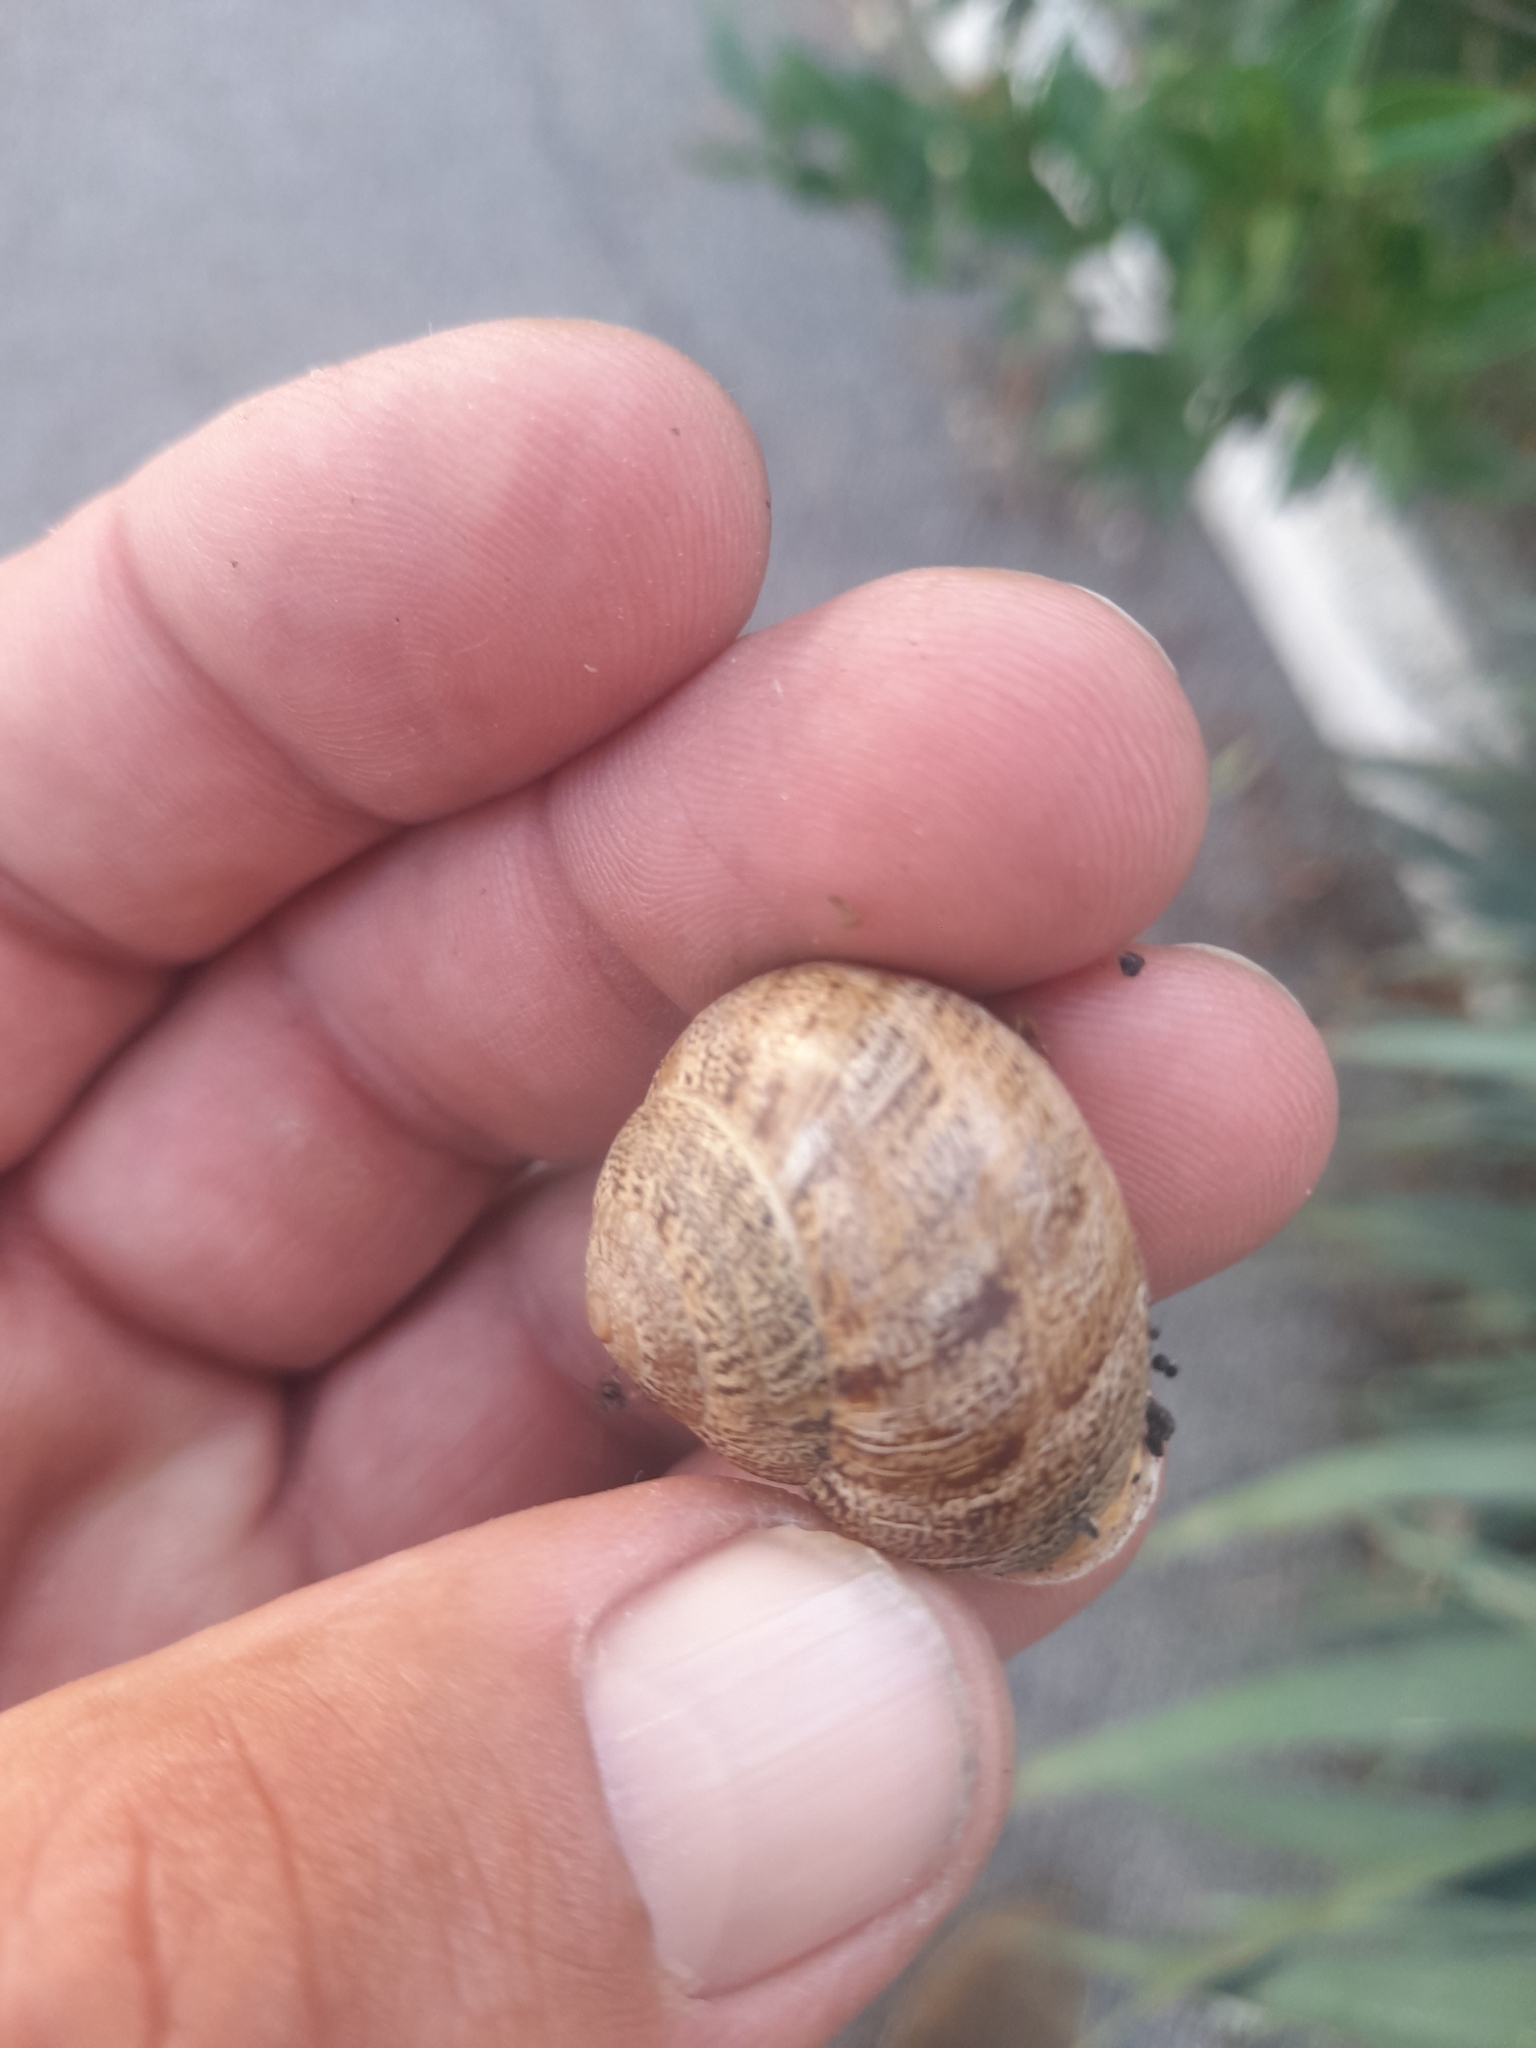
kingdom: Animalia
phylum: Mollusca
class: Gastropoda
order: Stylommatophora
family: Helicidae
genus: Eobania
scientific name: Eobania vermiculata
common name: Chocolateband snail
